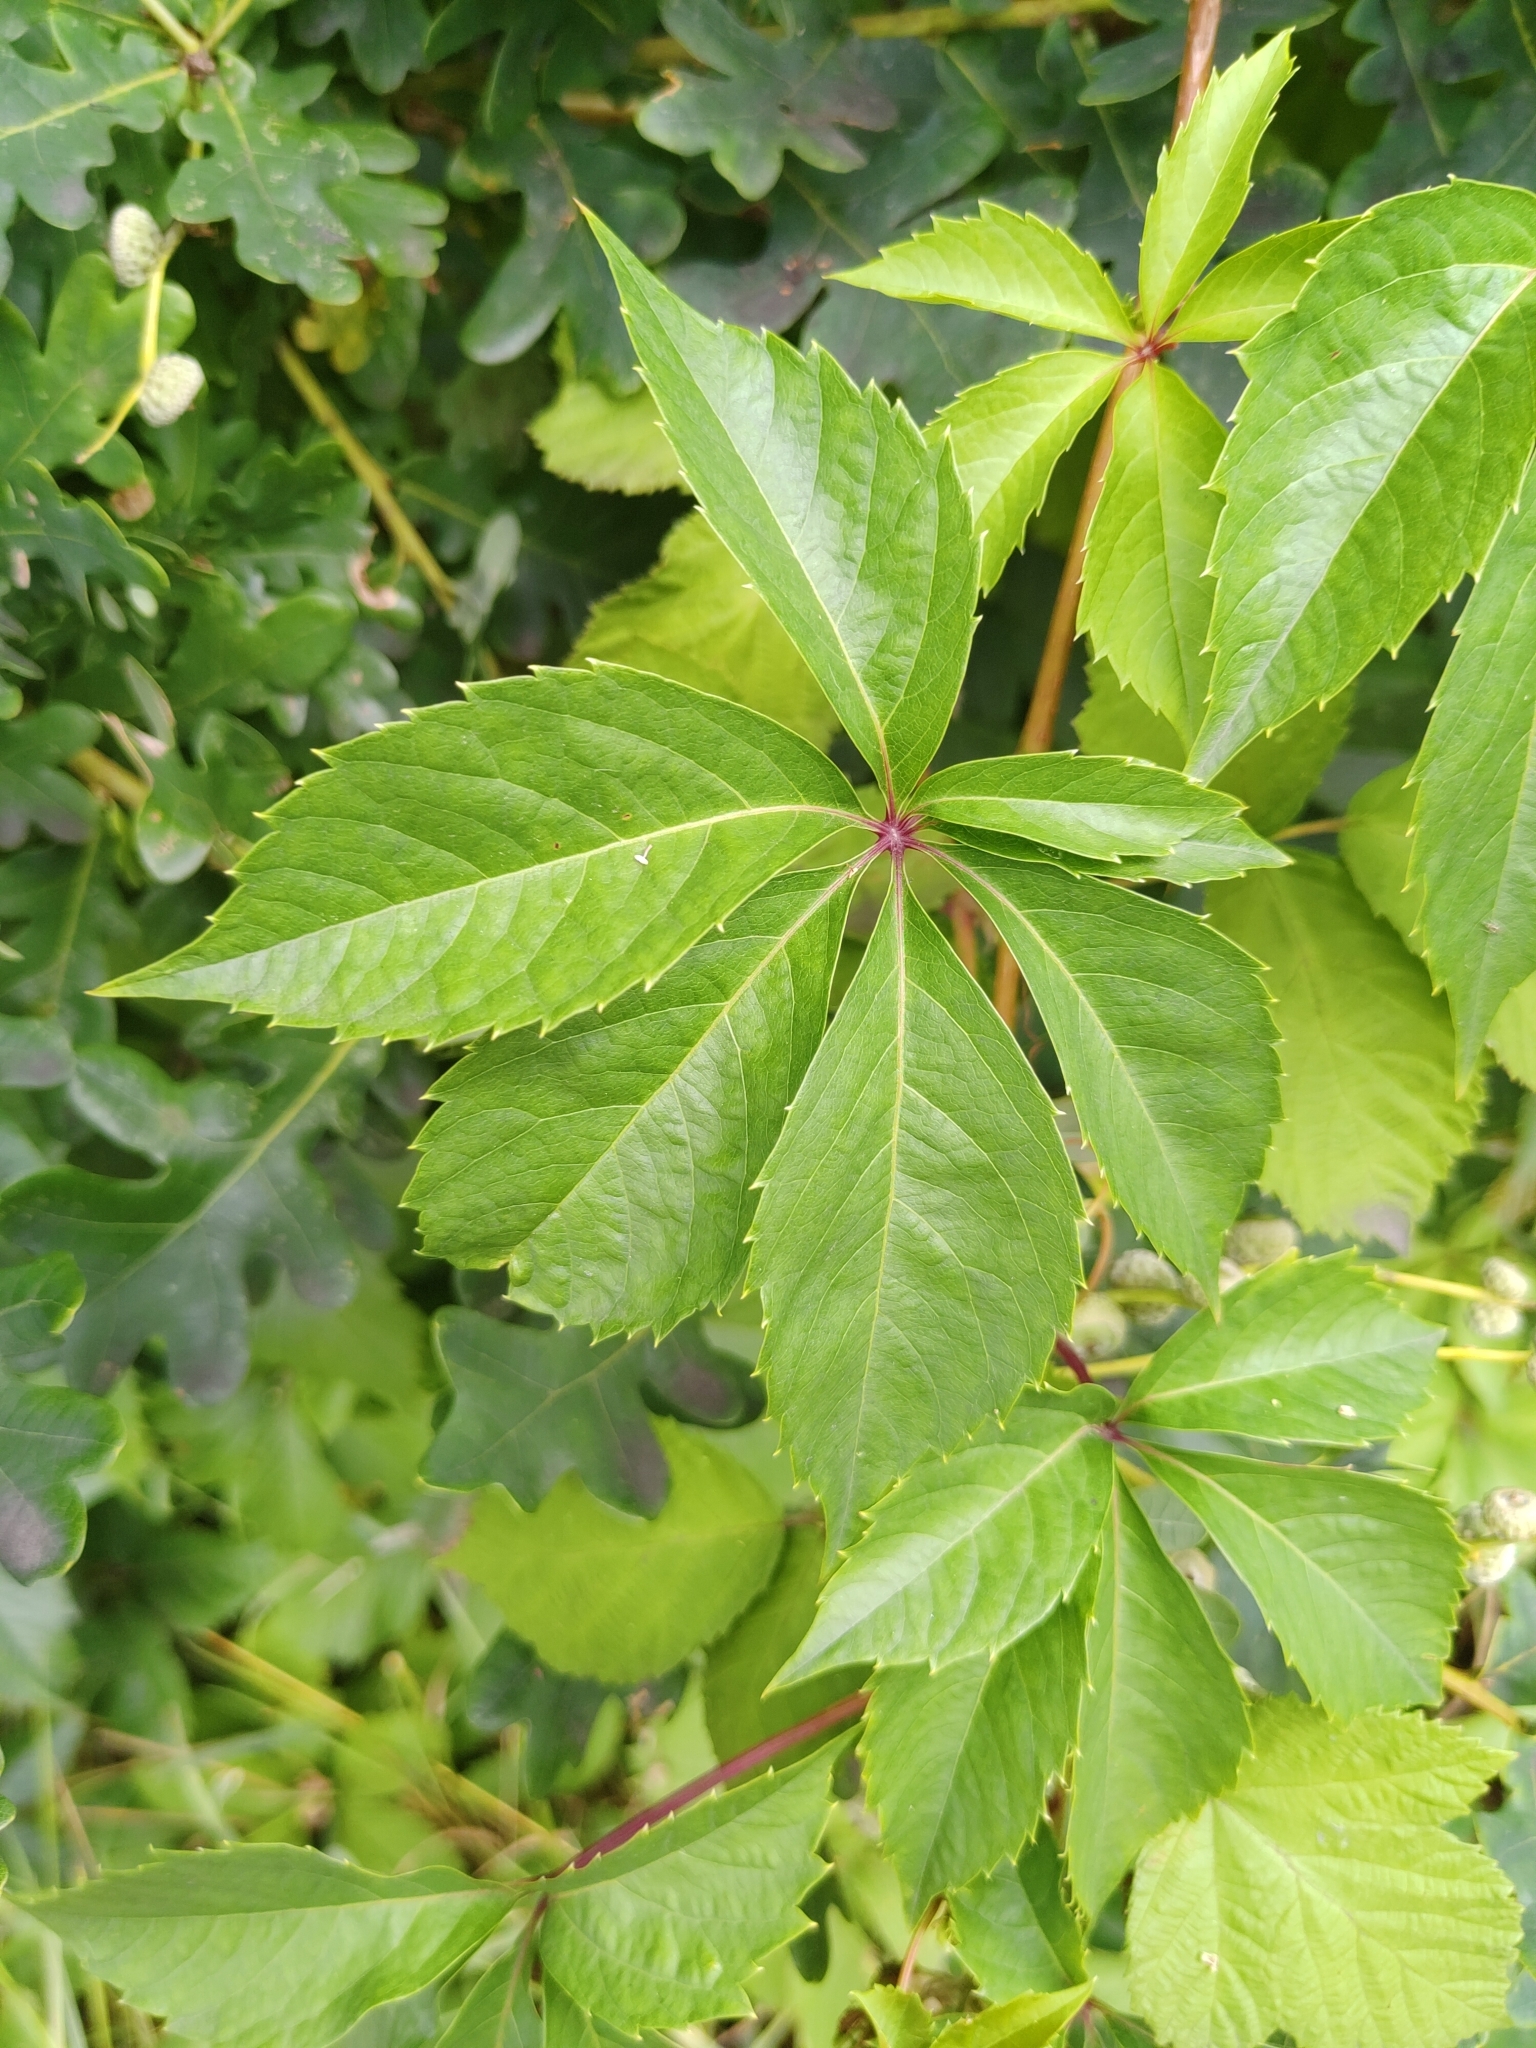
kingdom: Plantae
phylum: Tracheophyta
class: Magnoliopsida
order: Vitales
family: Vitaceae
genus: Parthenocissus
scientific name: Parthenocissus quinquefolia
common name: Virginia-creeper
